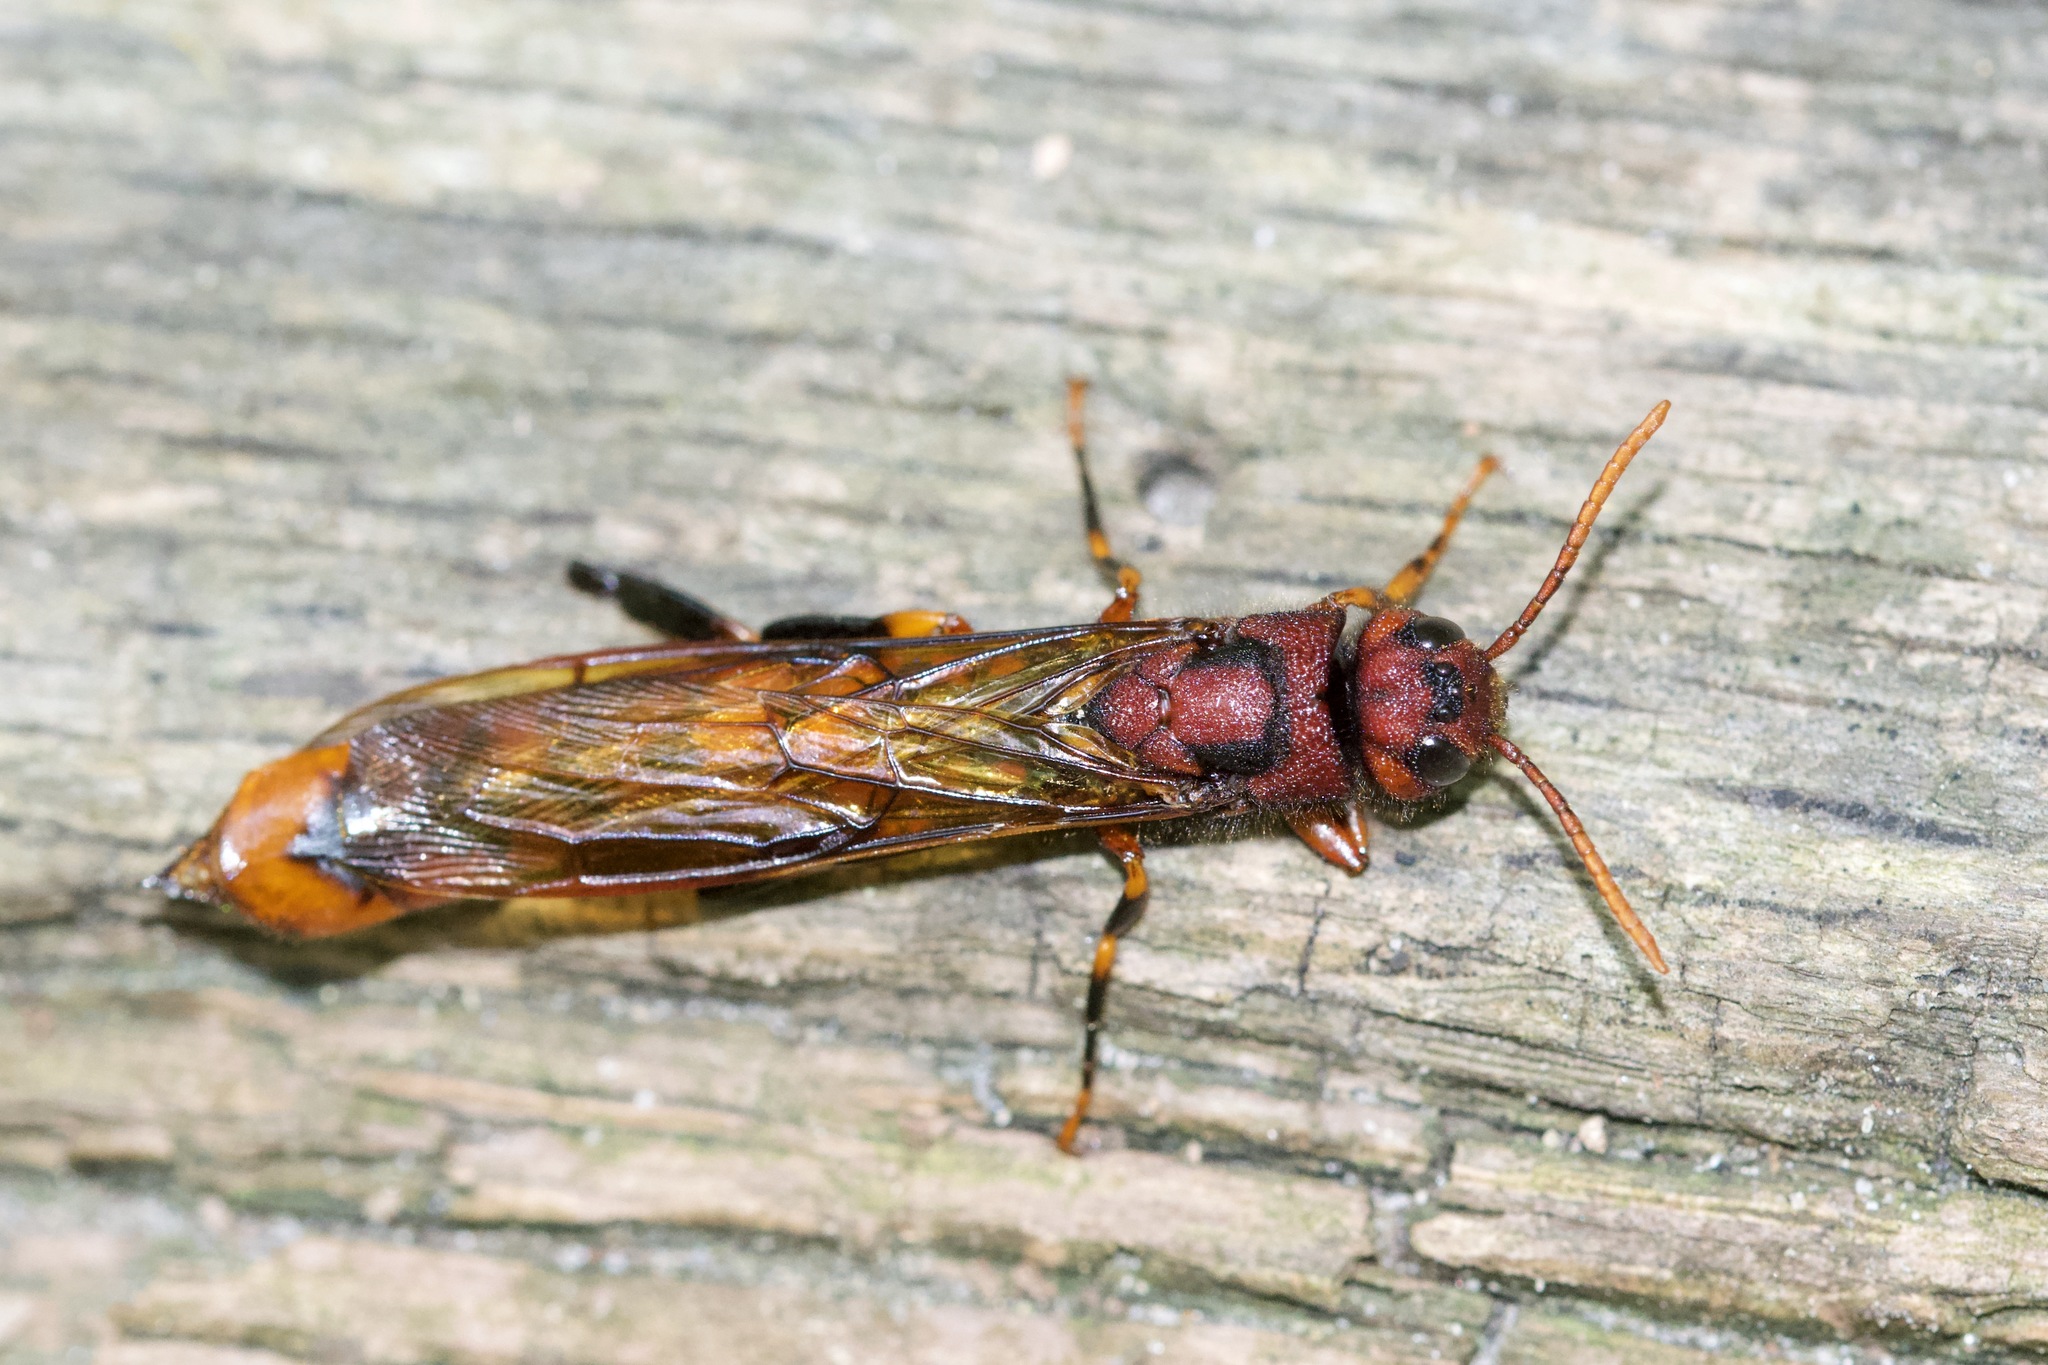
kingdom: Animalia
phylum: Arthropoda
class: Insecta
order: Hymenoptera
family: Siricidae
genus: Tremex
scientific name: Tremex columba
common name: Wasp
